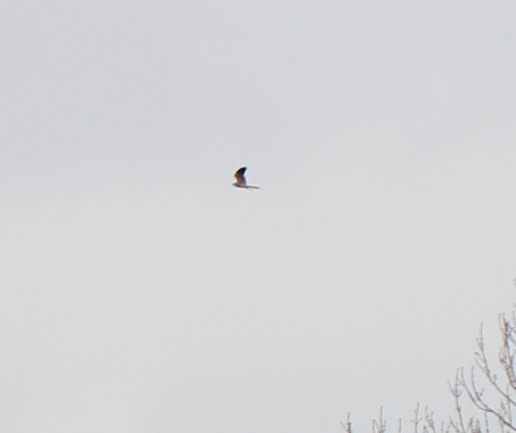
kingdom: Animalia
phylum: Chordata
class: Aves
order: Accipitriformes
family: Accipitridae
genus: Circus
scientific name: Circus pygargus
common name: Montagu's harrier
